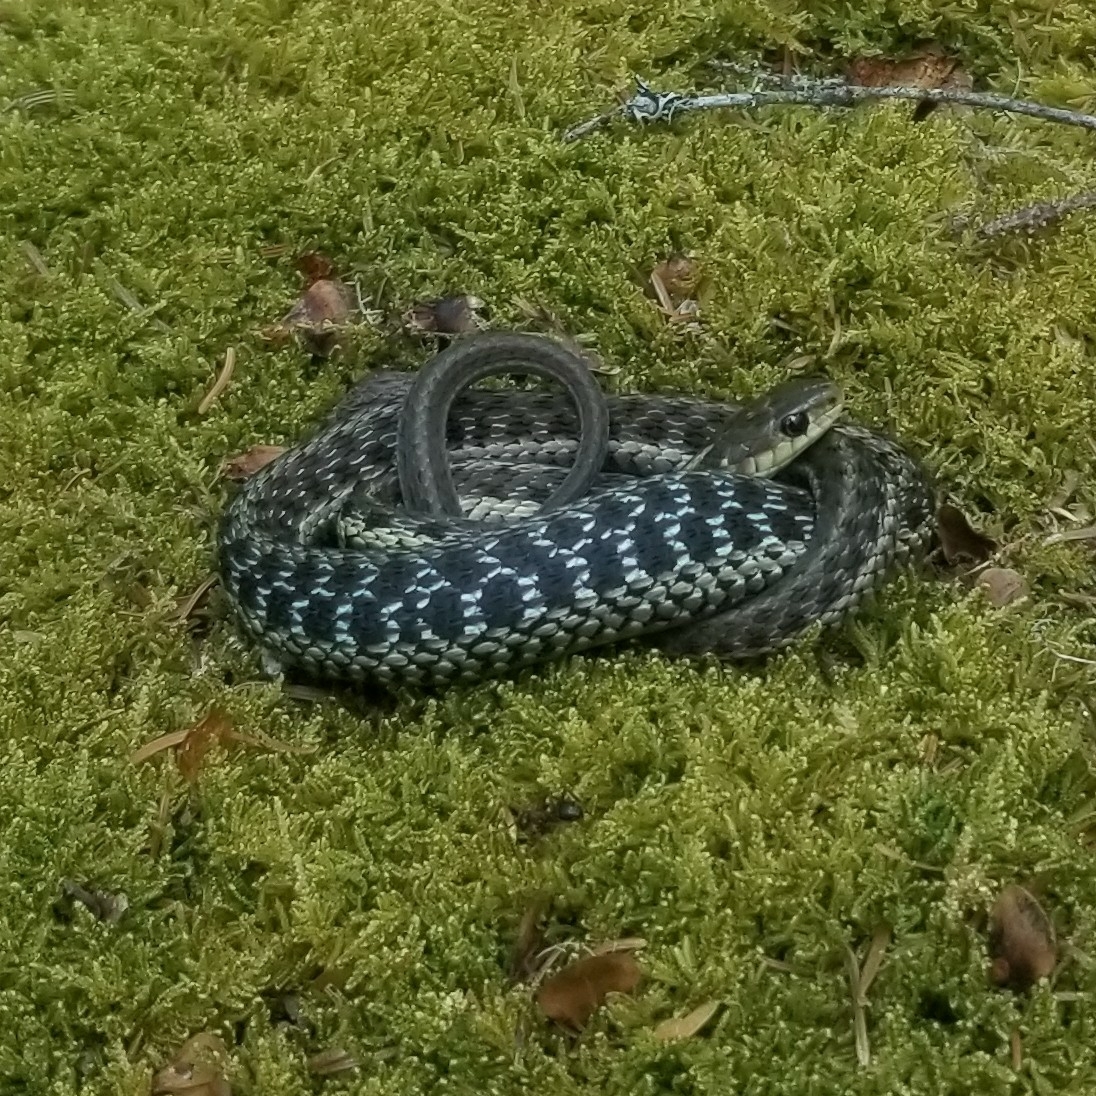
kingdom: Animalia
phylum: Chordata
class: Squamata
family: Colubridae
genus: Thamnophis
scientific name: Thamnophis sirtalis
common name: Common garter snake
